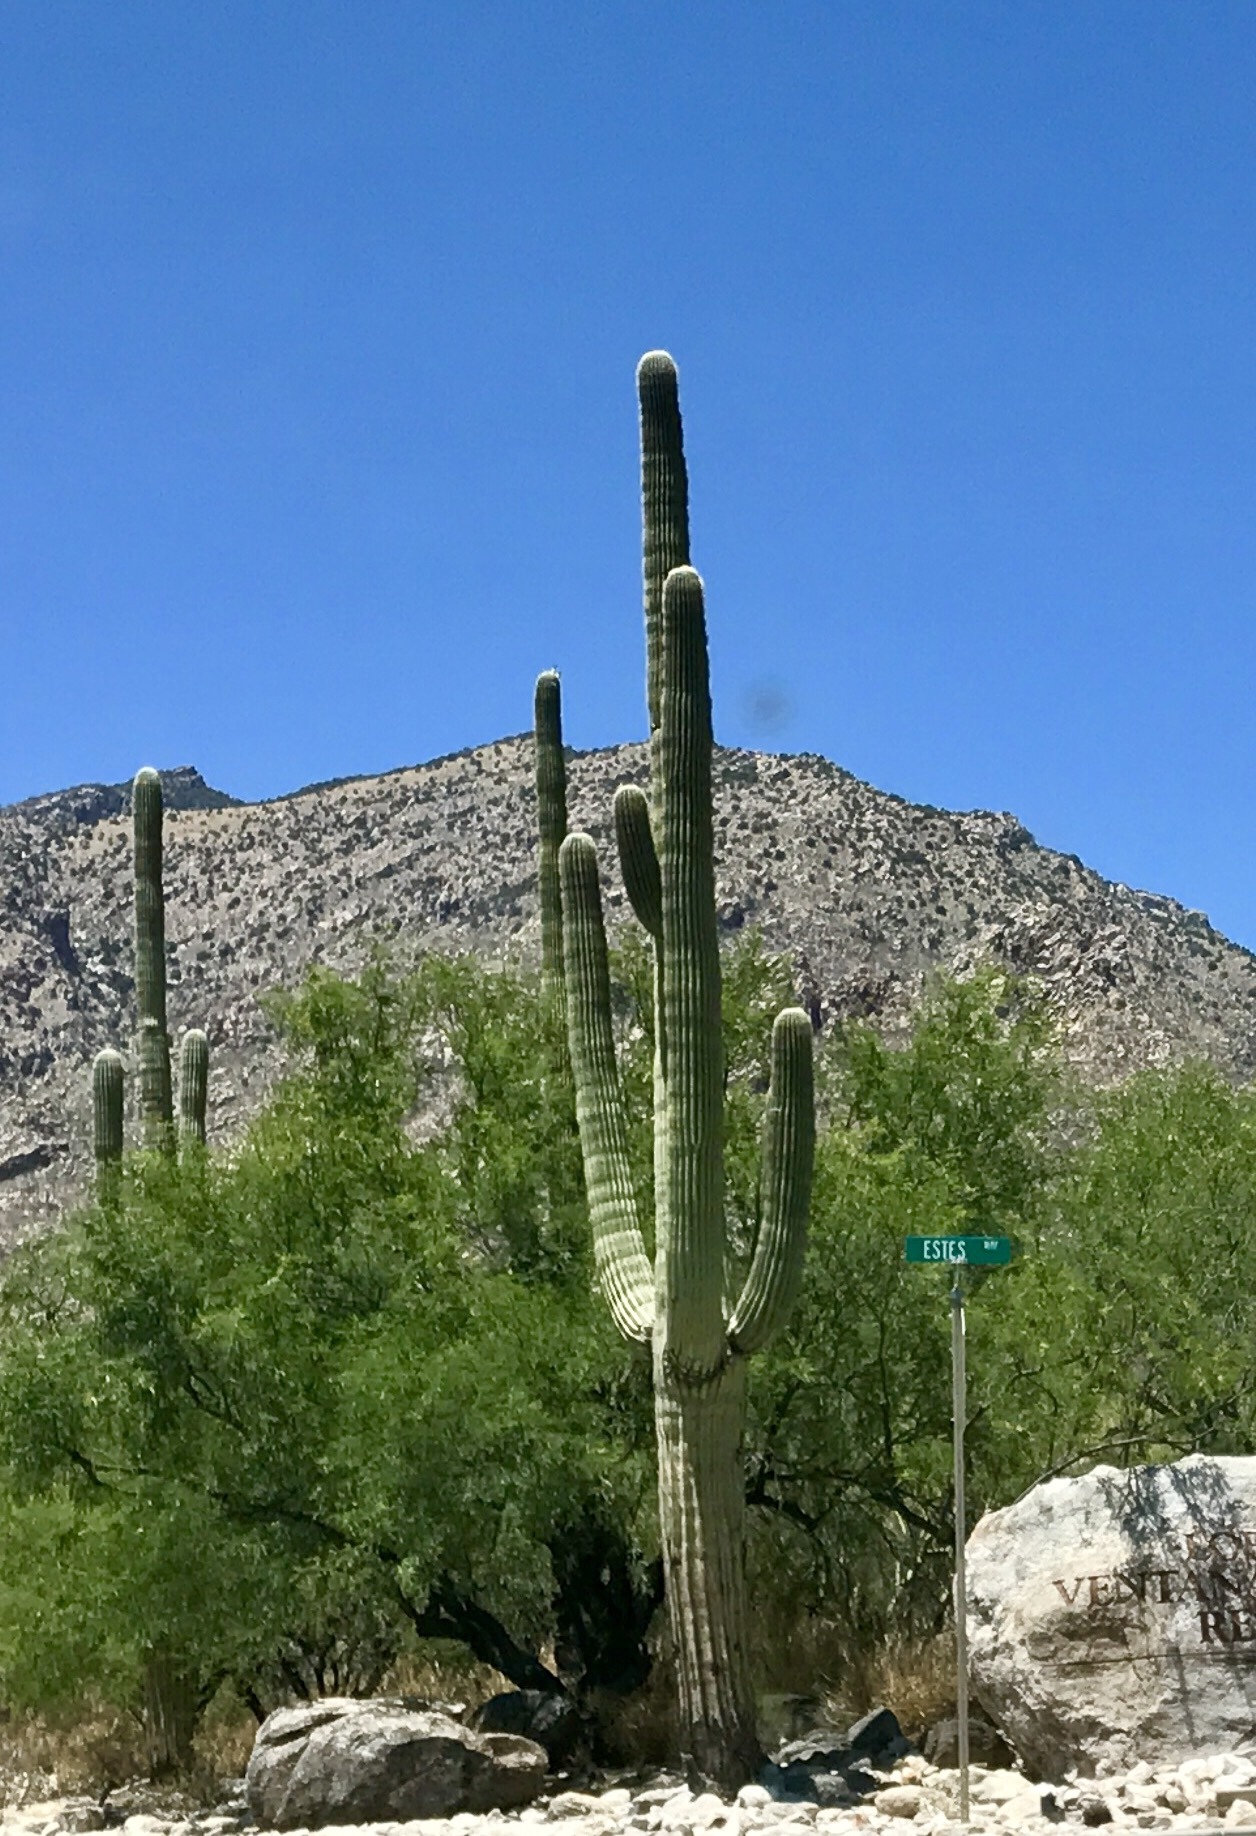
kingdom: Plantae
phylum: Tracheophyta
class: Magnoliopsida
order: Caryophyllales
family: Cactaceae
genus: Carnegiea
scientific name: Carnegiea gigantea
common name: Saguaro
